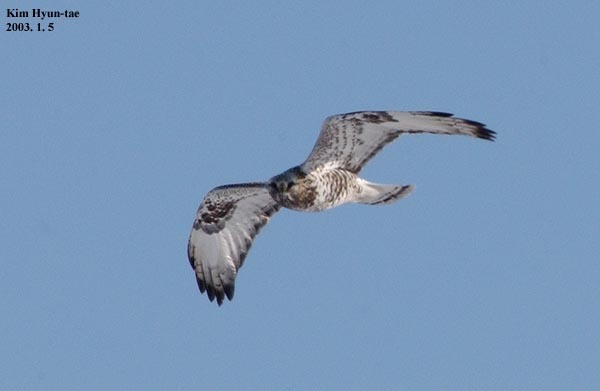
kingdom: Animalia
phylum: Chordata
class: Aves
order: Accipitriformes
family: Accipitridae
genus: Buteo
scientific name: Buteo lagopus
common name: Rough-legged buzzard
